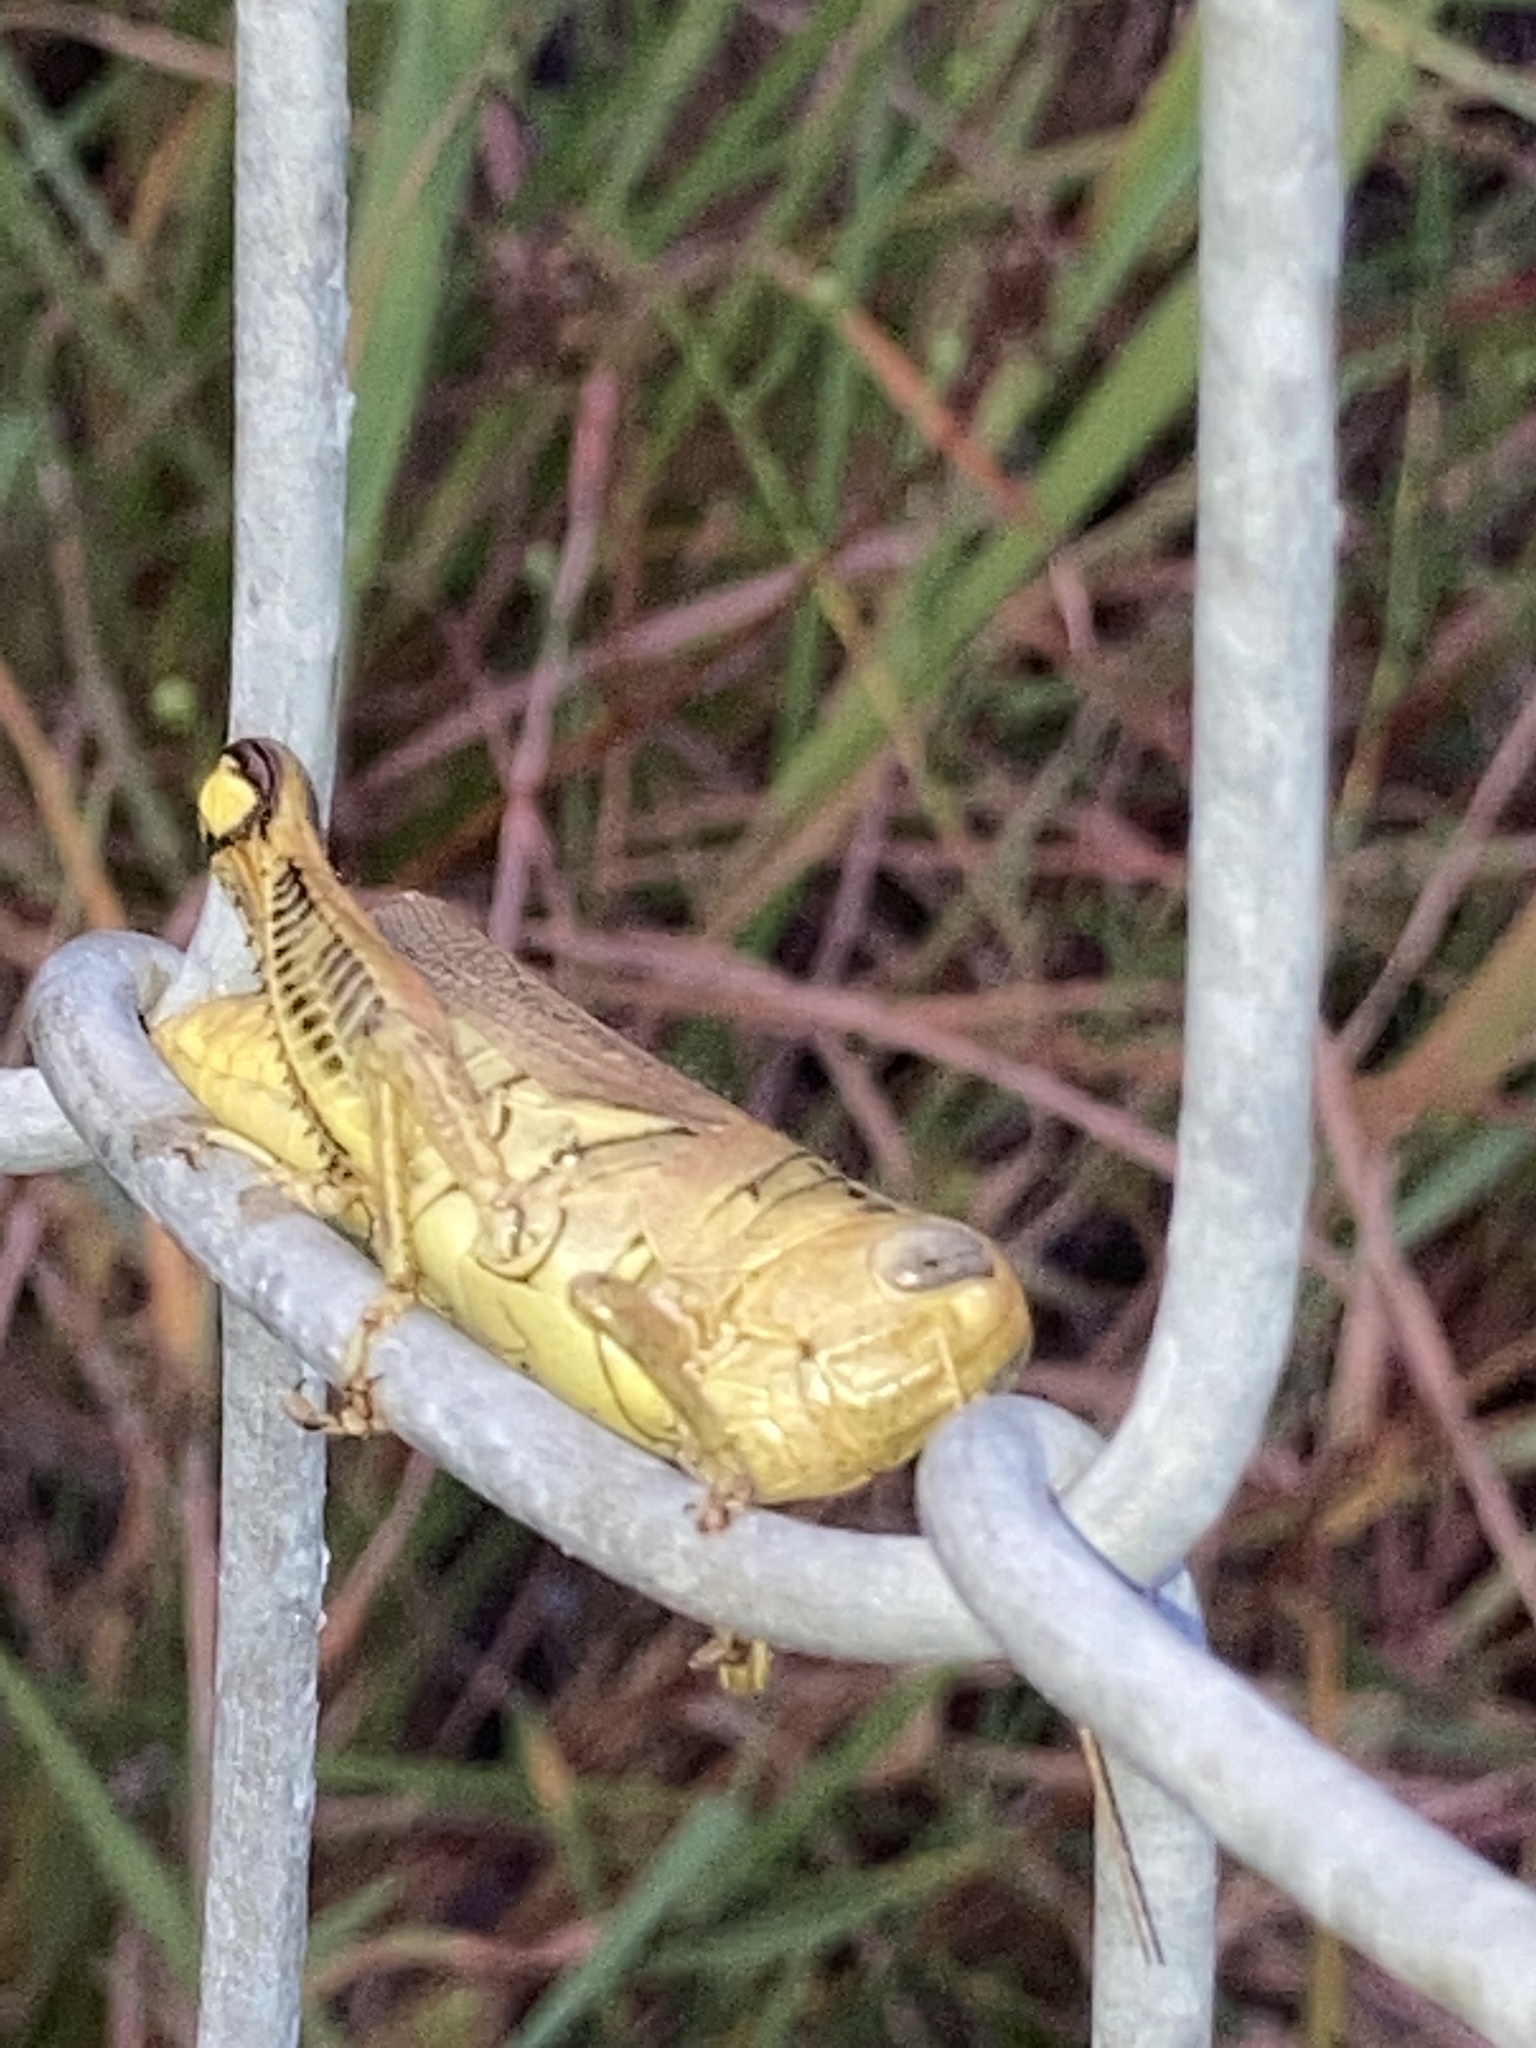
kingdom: Animalia
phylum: Arthropoda
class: Insecta
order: Orthoptera
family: Acrididae
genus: Melanoplus
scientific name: Melanoplus differentialis
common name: Differential grasshopper
